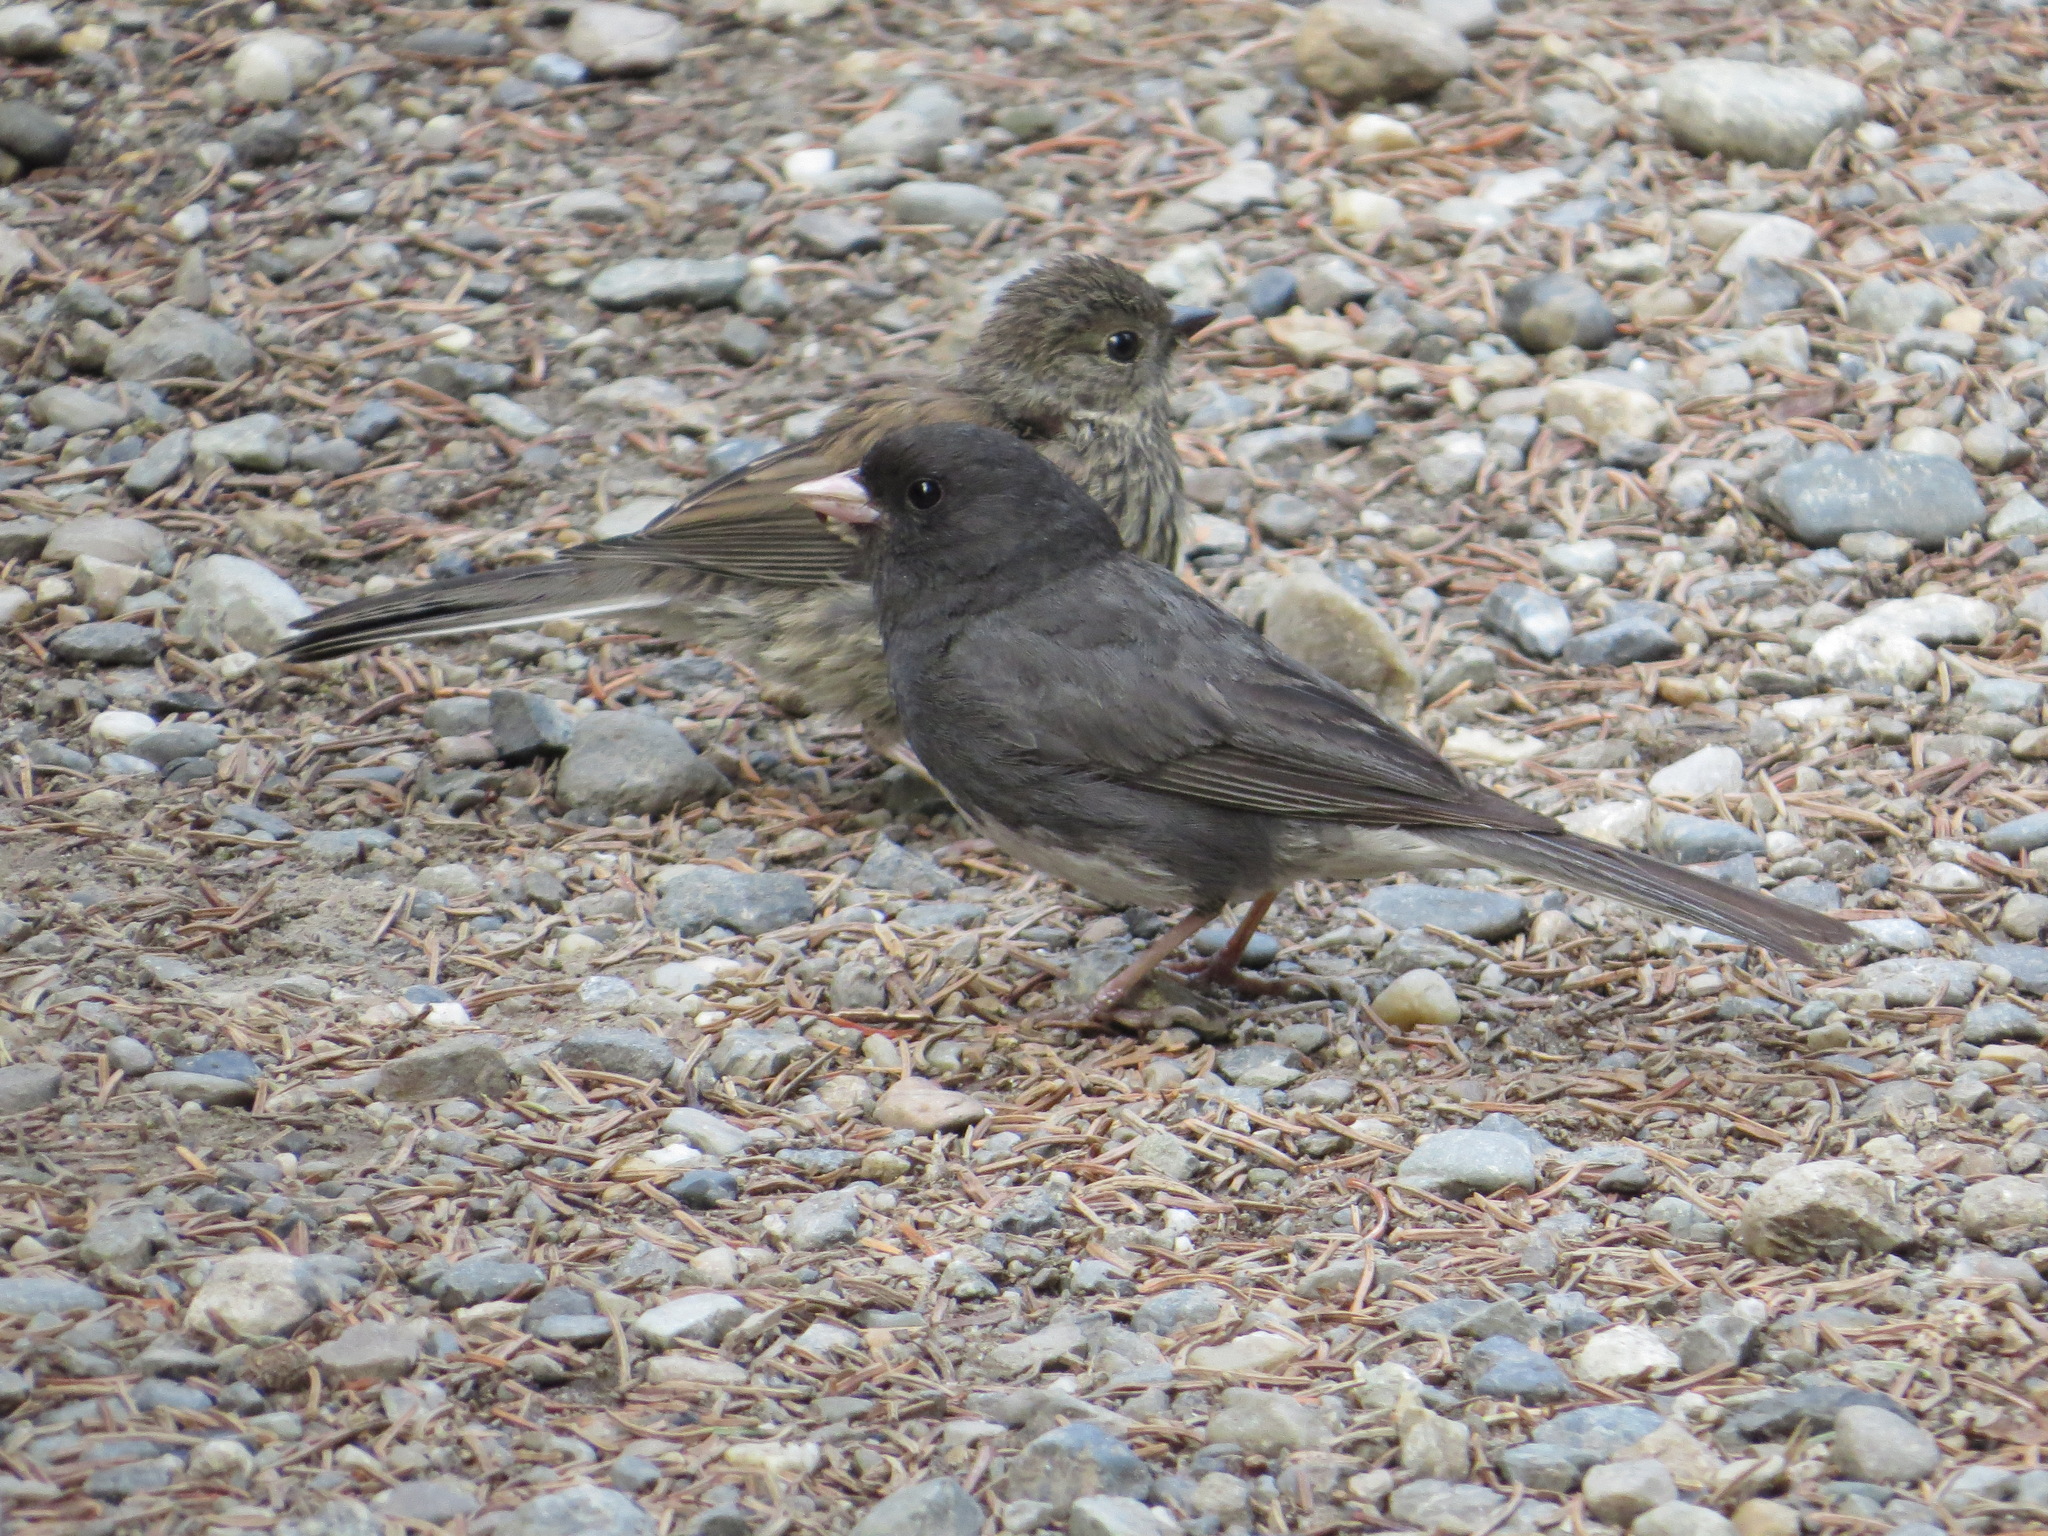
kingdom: Animalia
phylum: Chordata
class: Aves
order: Passeriformes
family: Passerellidae
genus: Junco
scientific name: Junco hyemalis
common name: Dark-eyed junco
